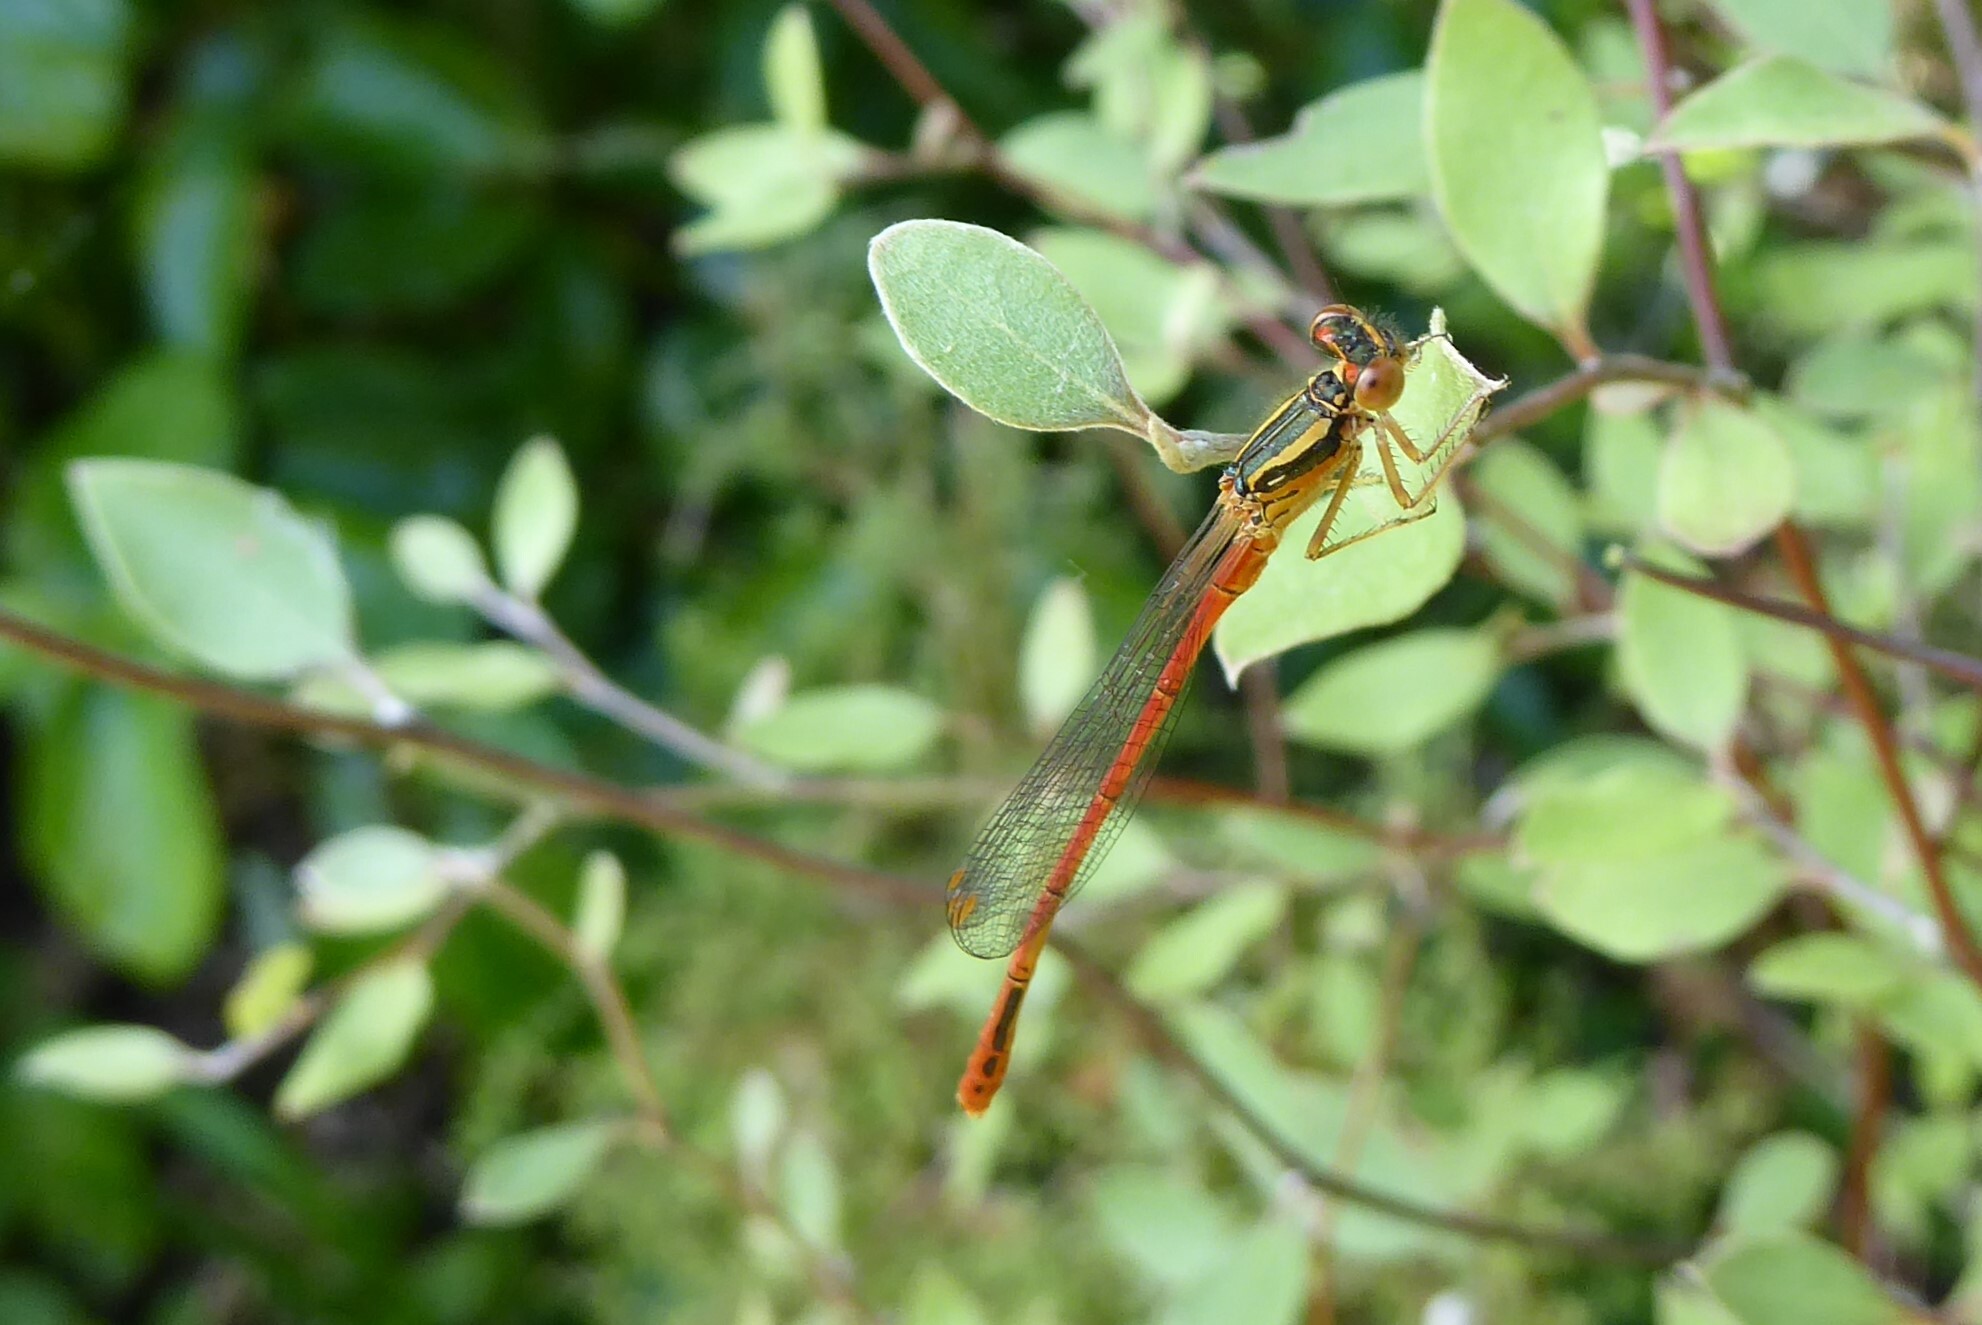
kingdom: Animalia
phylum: Arthropoda
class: Insecta
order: Odonata
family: Coenagrionidae
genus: Xanthocnemis
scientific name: Xanthocnemis zealandica
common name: Common redcoat damselfly
